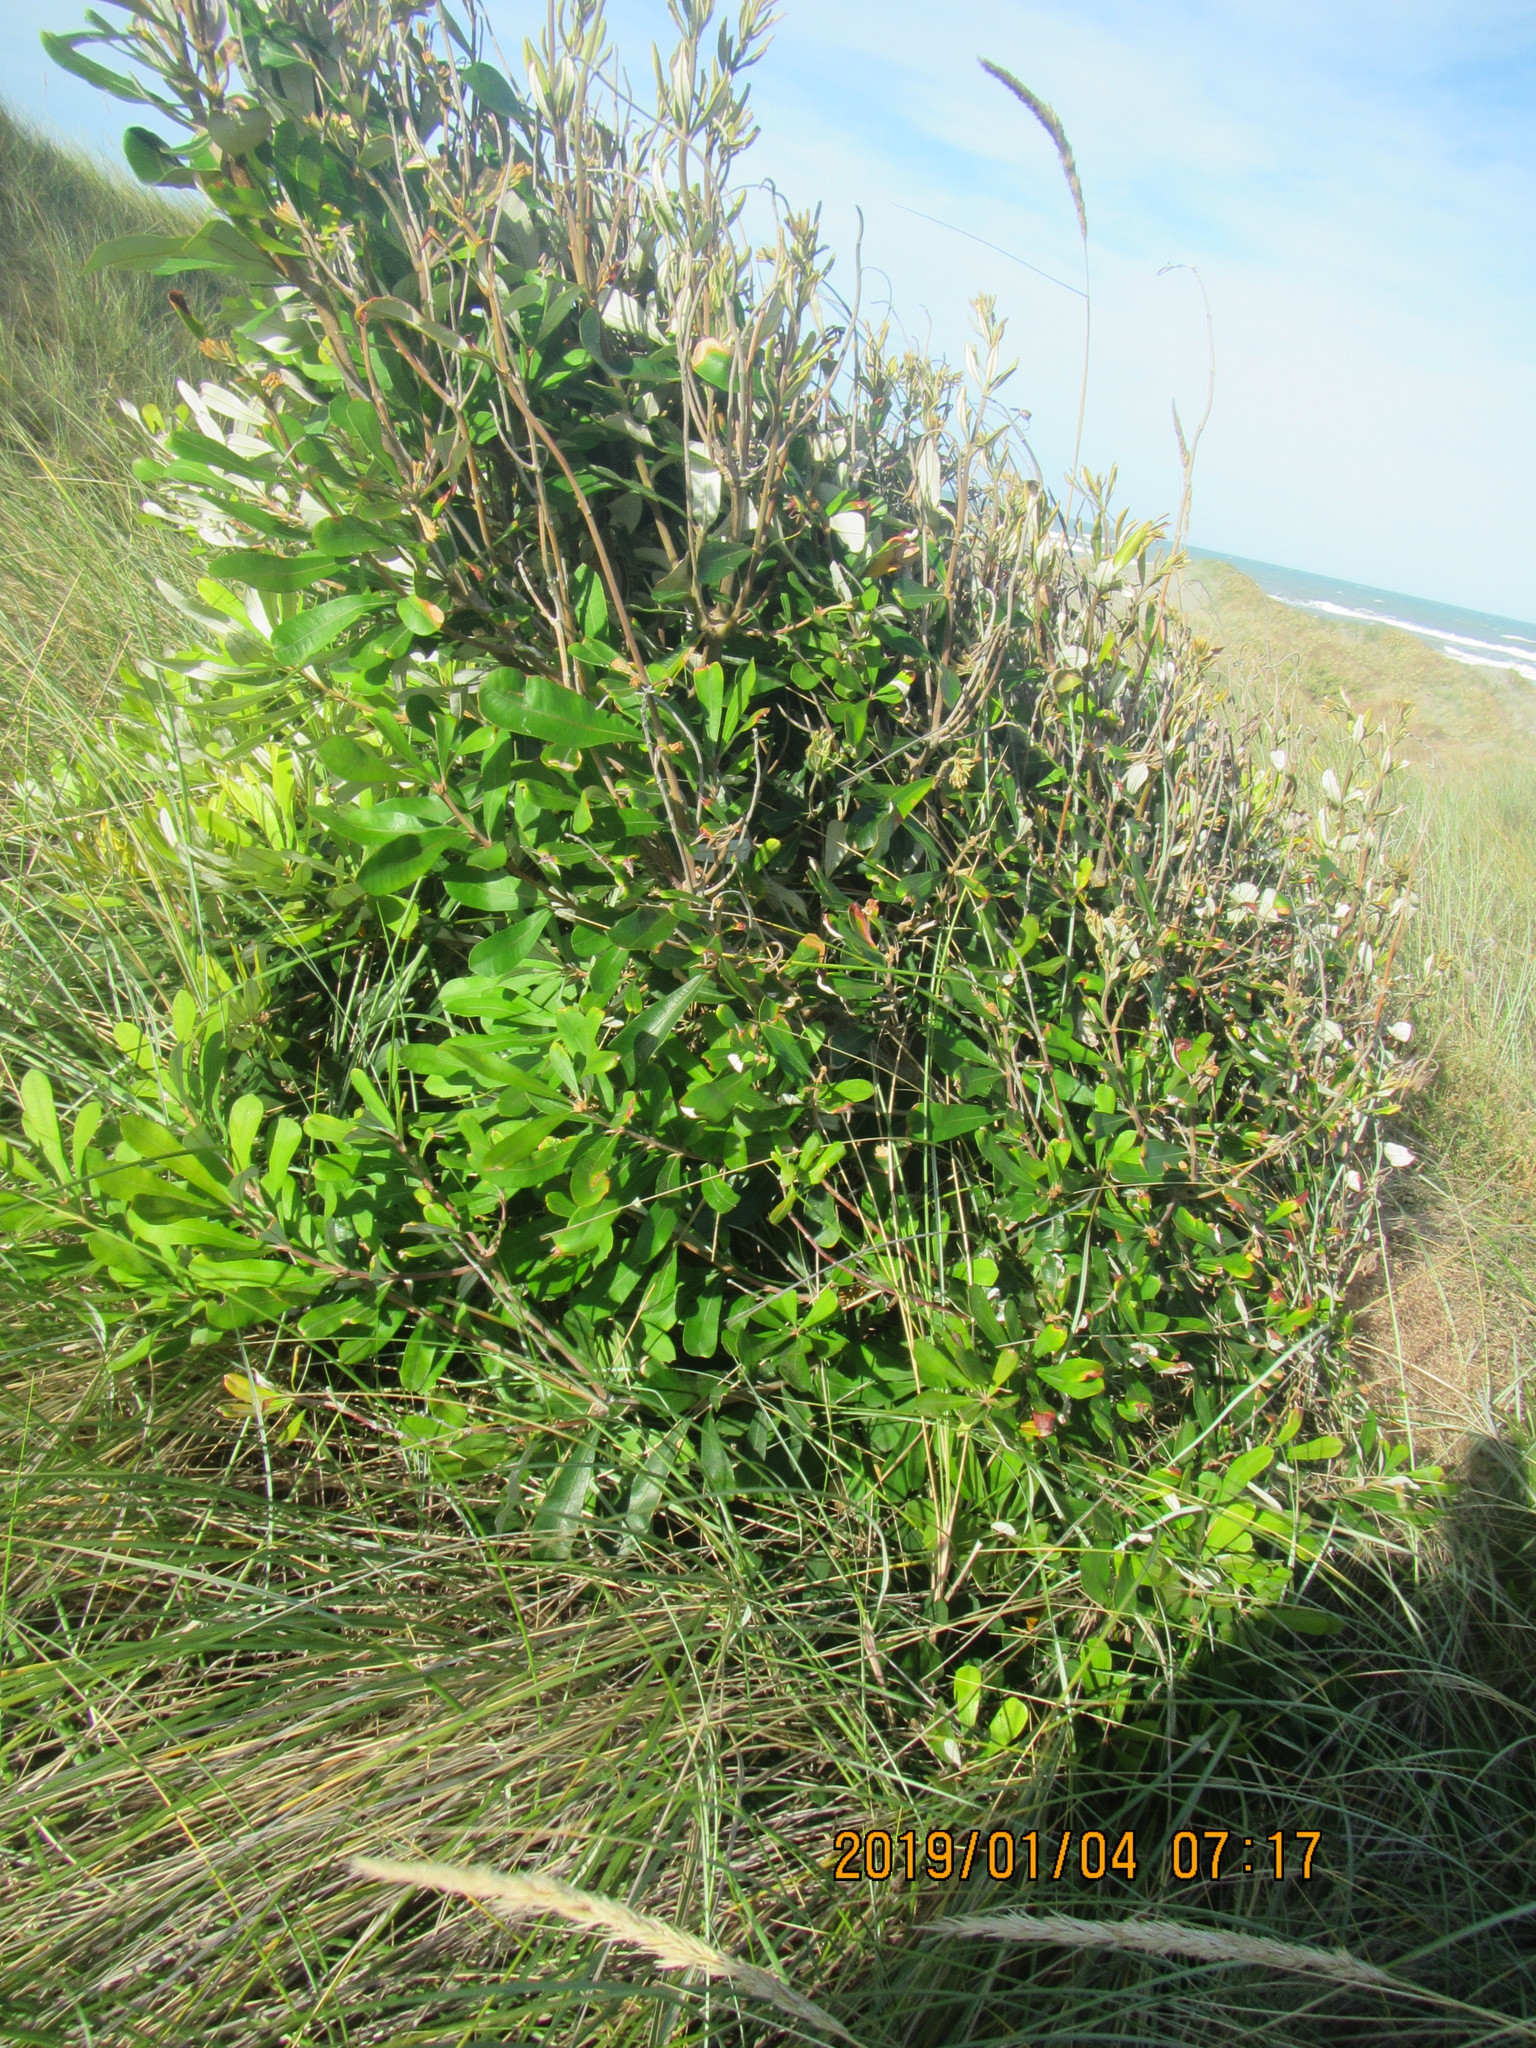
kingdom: Plantae
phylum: Tracheophyta
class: Magnoliopsida
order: Proteales
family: Proteaceae
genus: Banksia
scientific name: Banksia integrifolia
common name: White-honeysuckle
